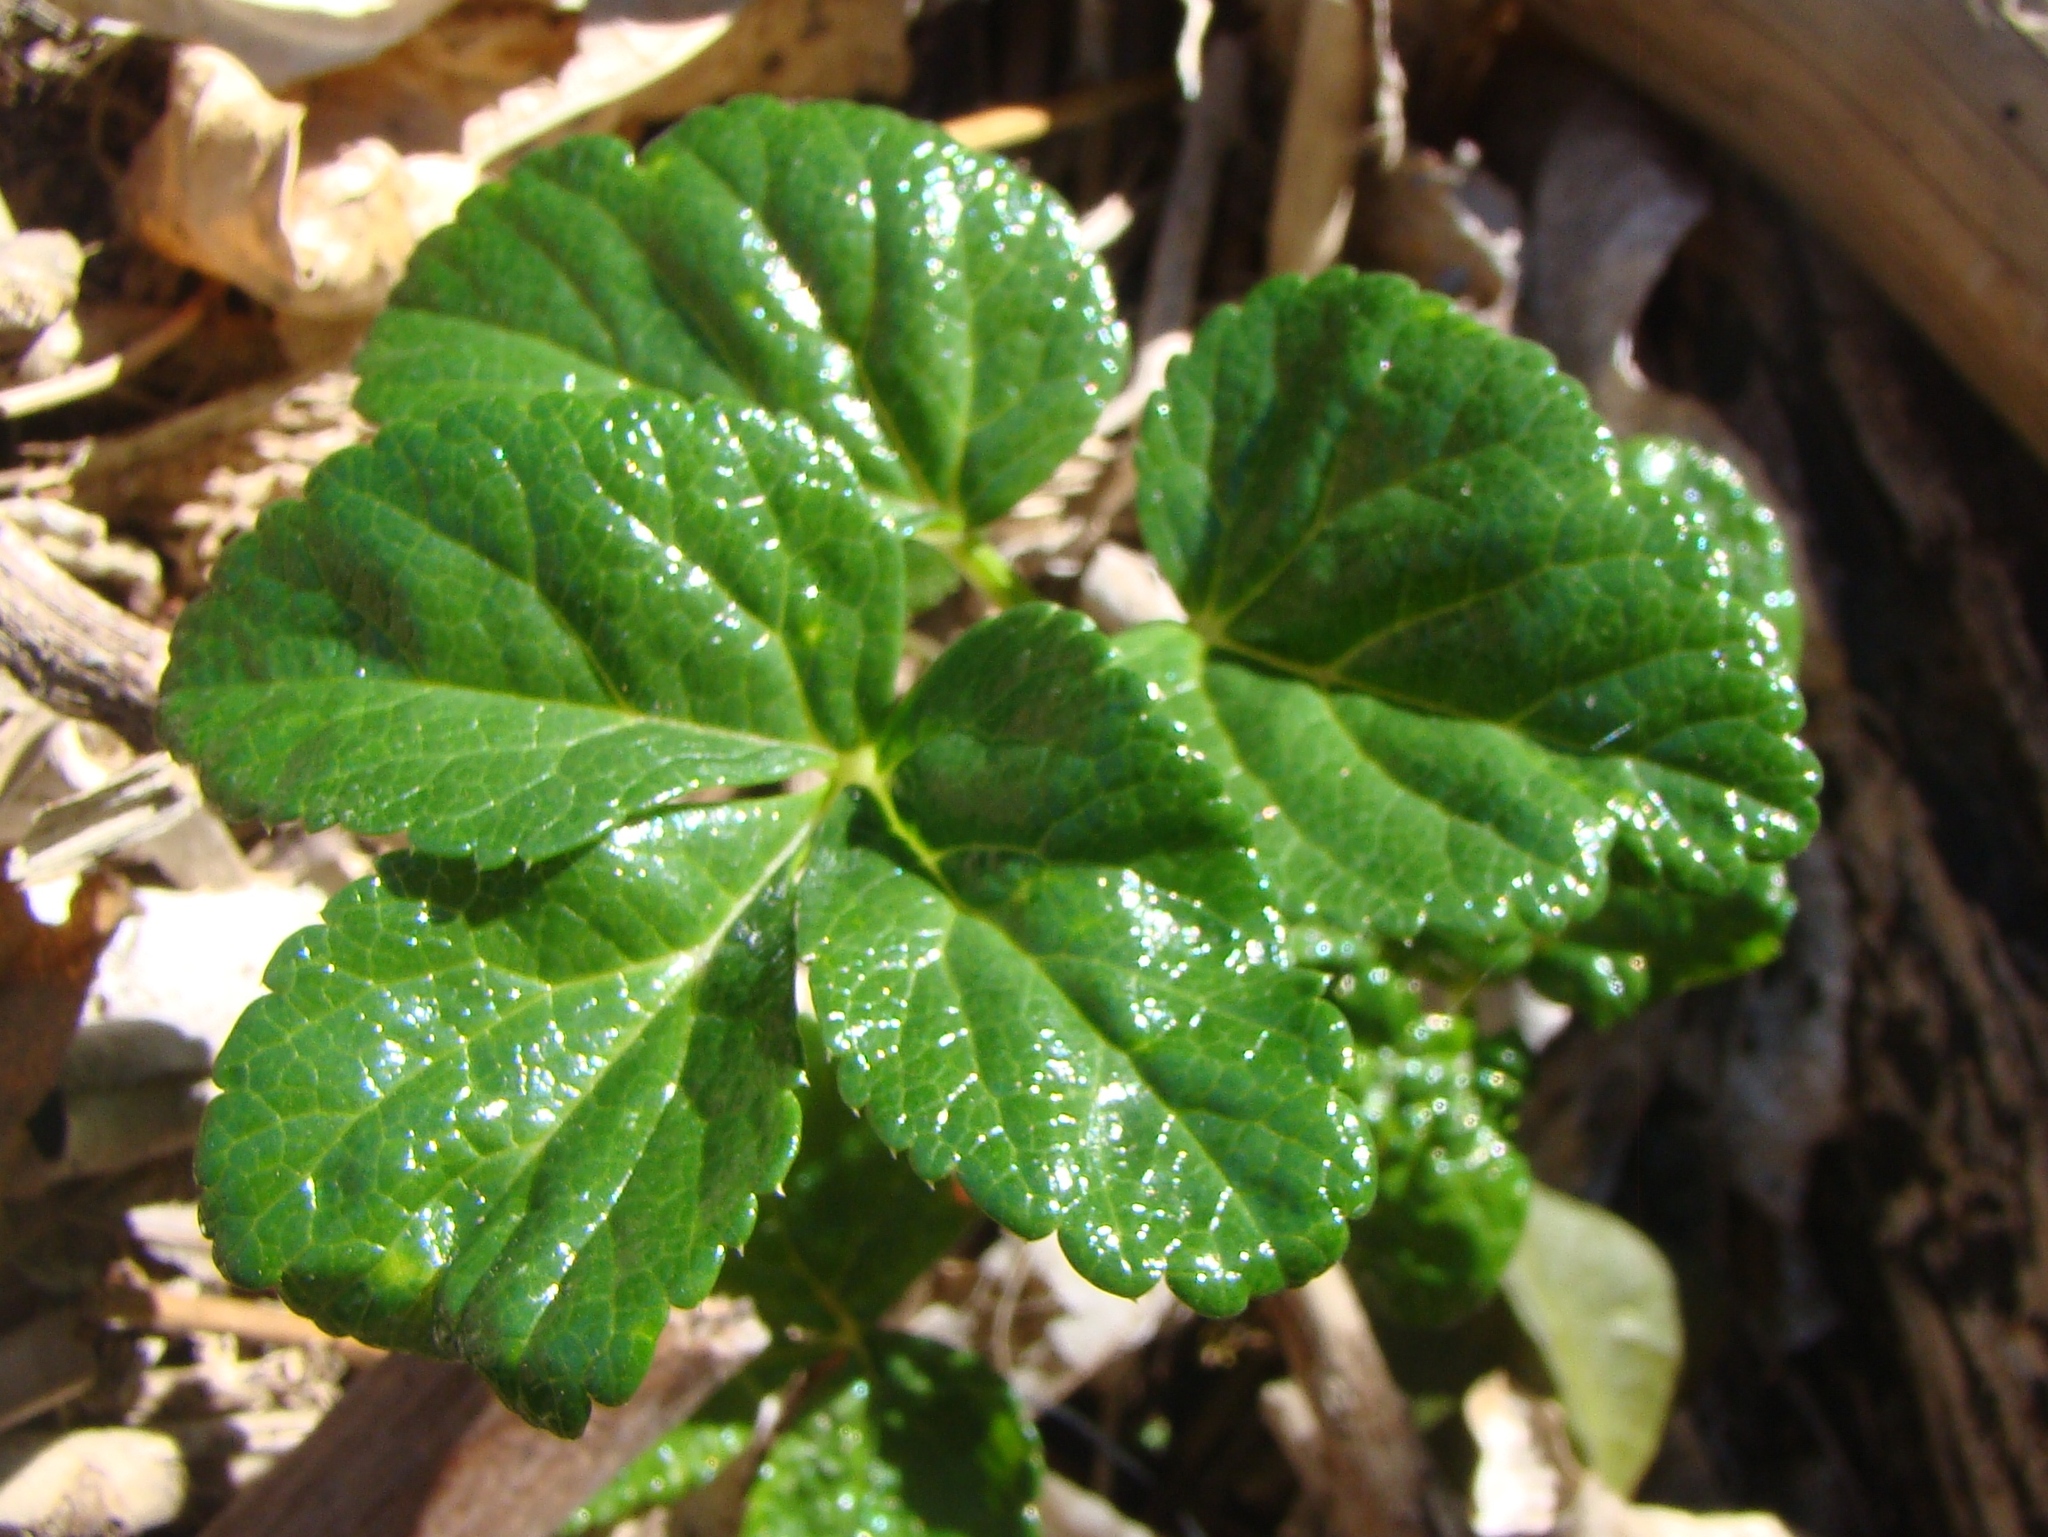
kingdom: Plantae
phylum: Tracheophyta
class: Magnoliopsida
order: Apiales
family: Apiaceae
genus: Angelica
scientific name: Angelica pachycarpa
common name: Portuguese angelica
